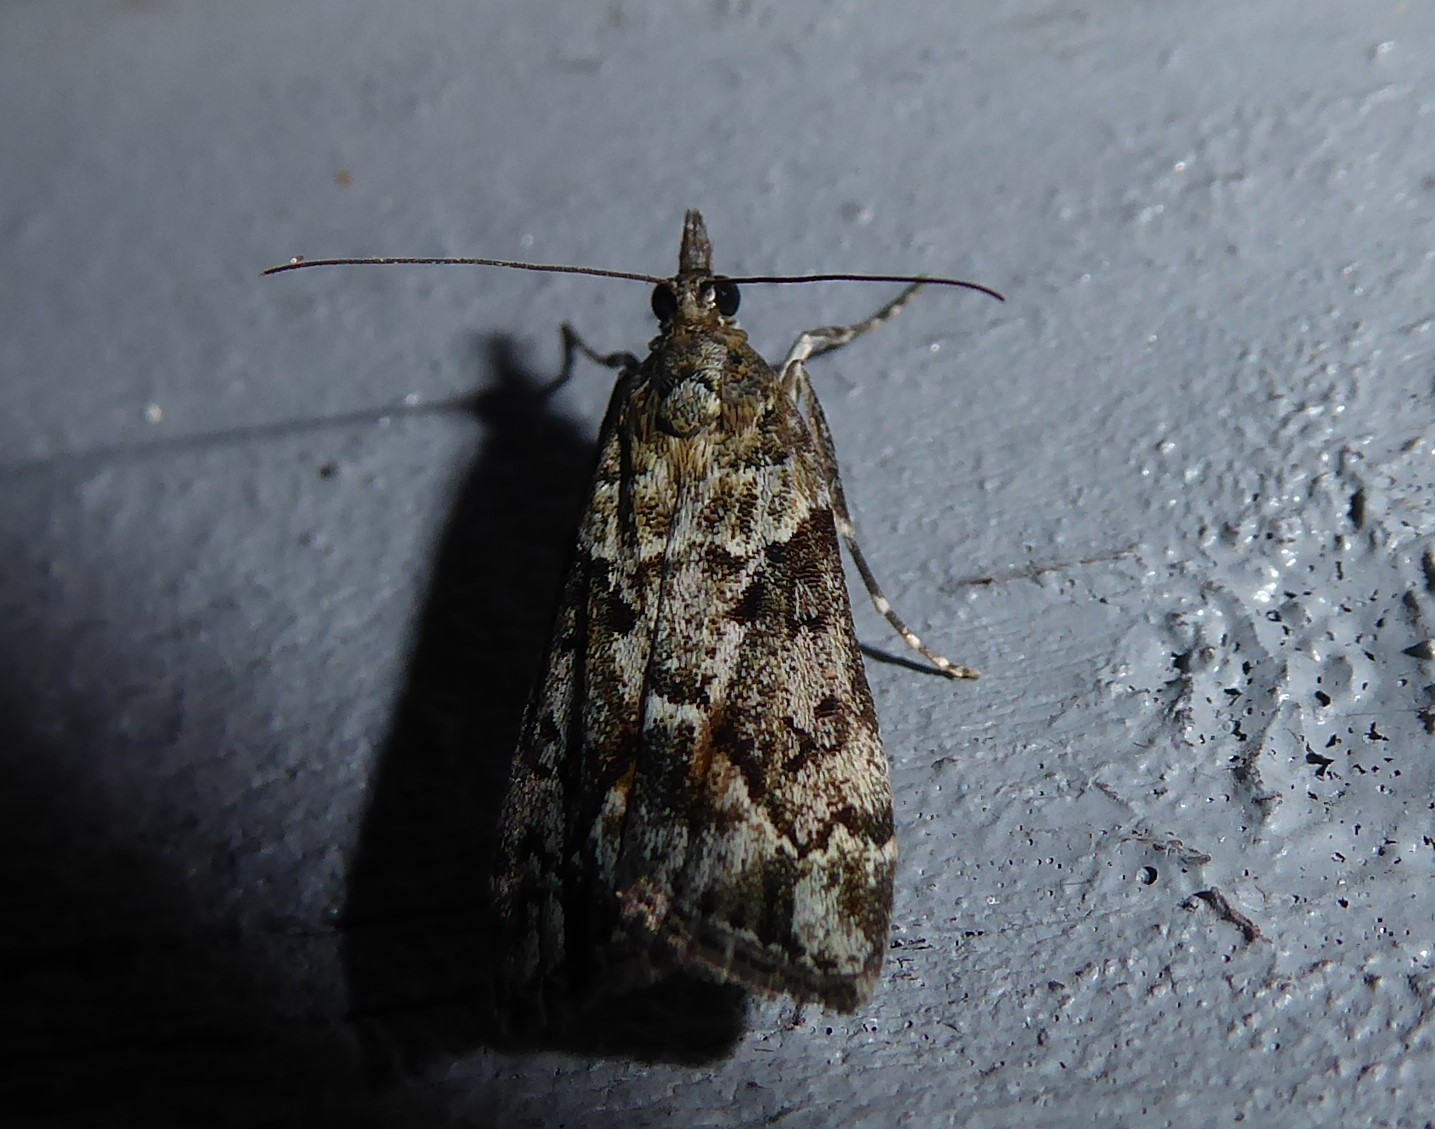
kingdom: Animalia
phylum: Arthropoda
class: Insecta
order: Lepidoptera
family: Crambidae
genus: Eudonia
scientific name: Eudonia submarginalis
